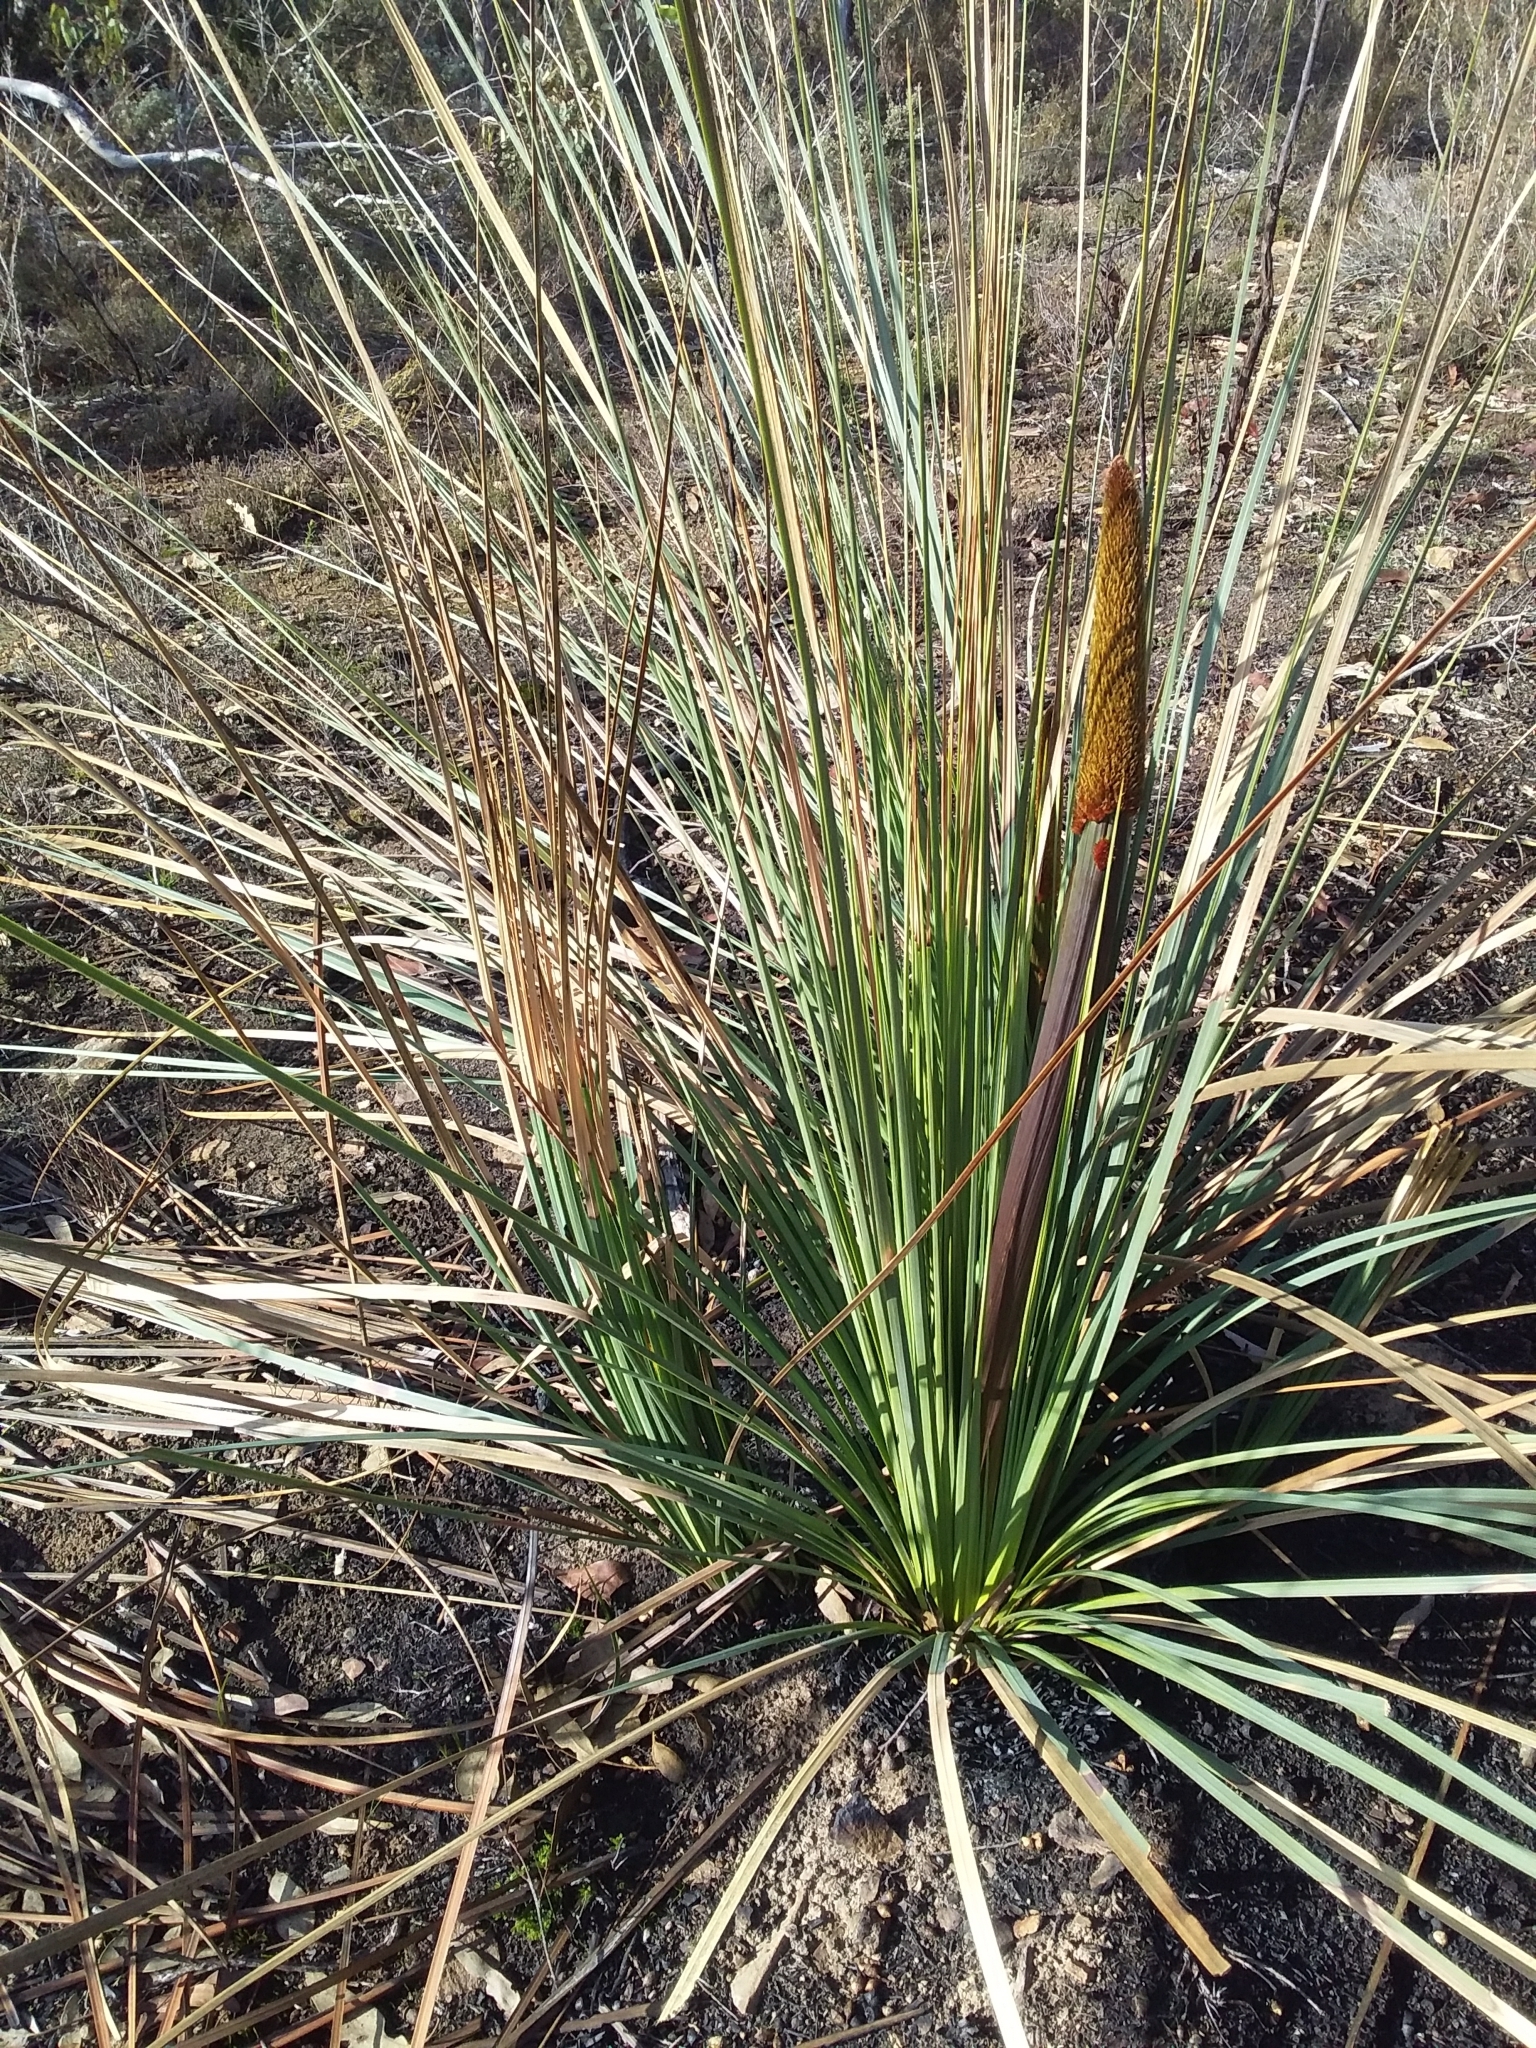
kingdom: Plantae
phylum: Tracheophyta
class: Liliopsida
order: Asparagales
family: Asphodelaceae
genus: Xanthorrhoea
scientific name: Xanthorrhoea semiplana
